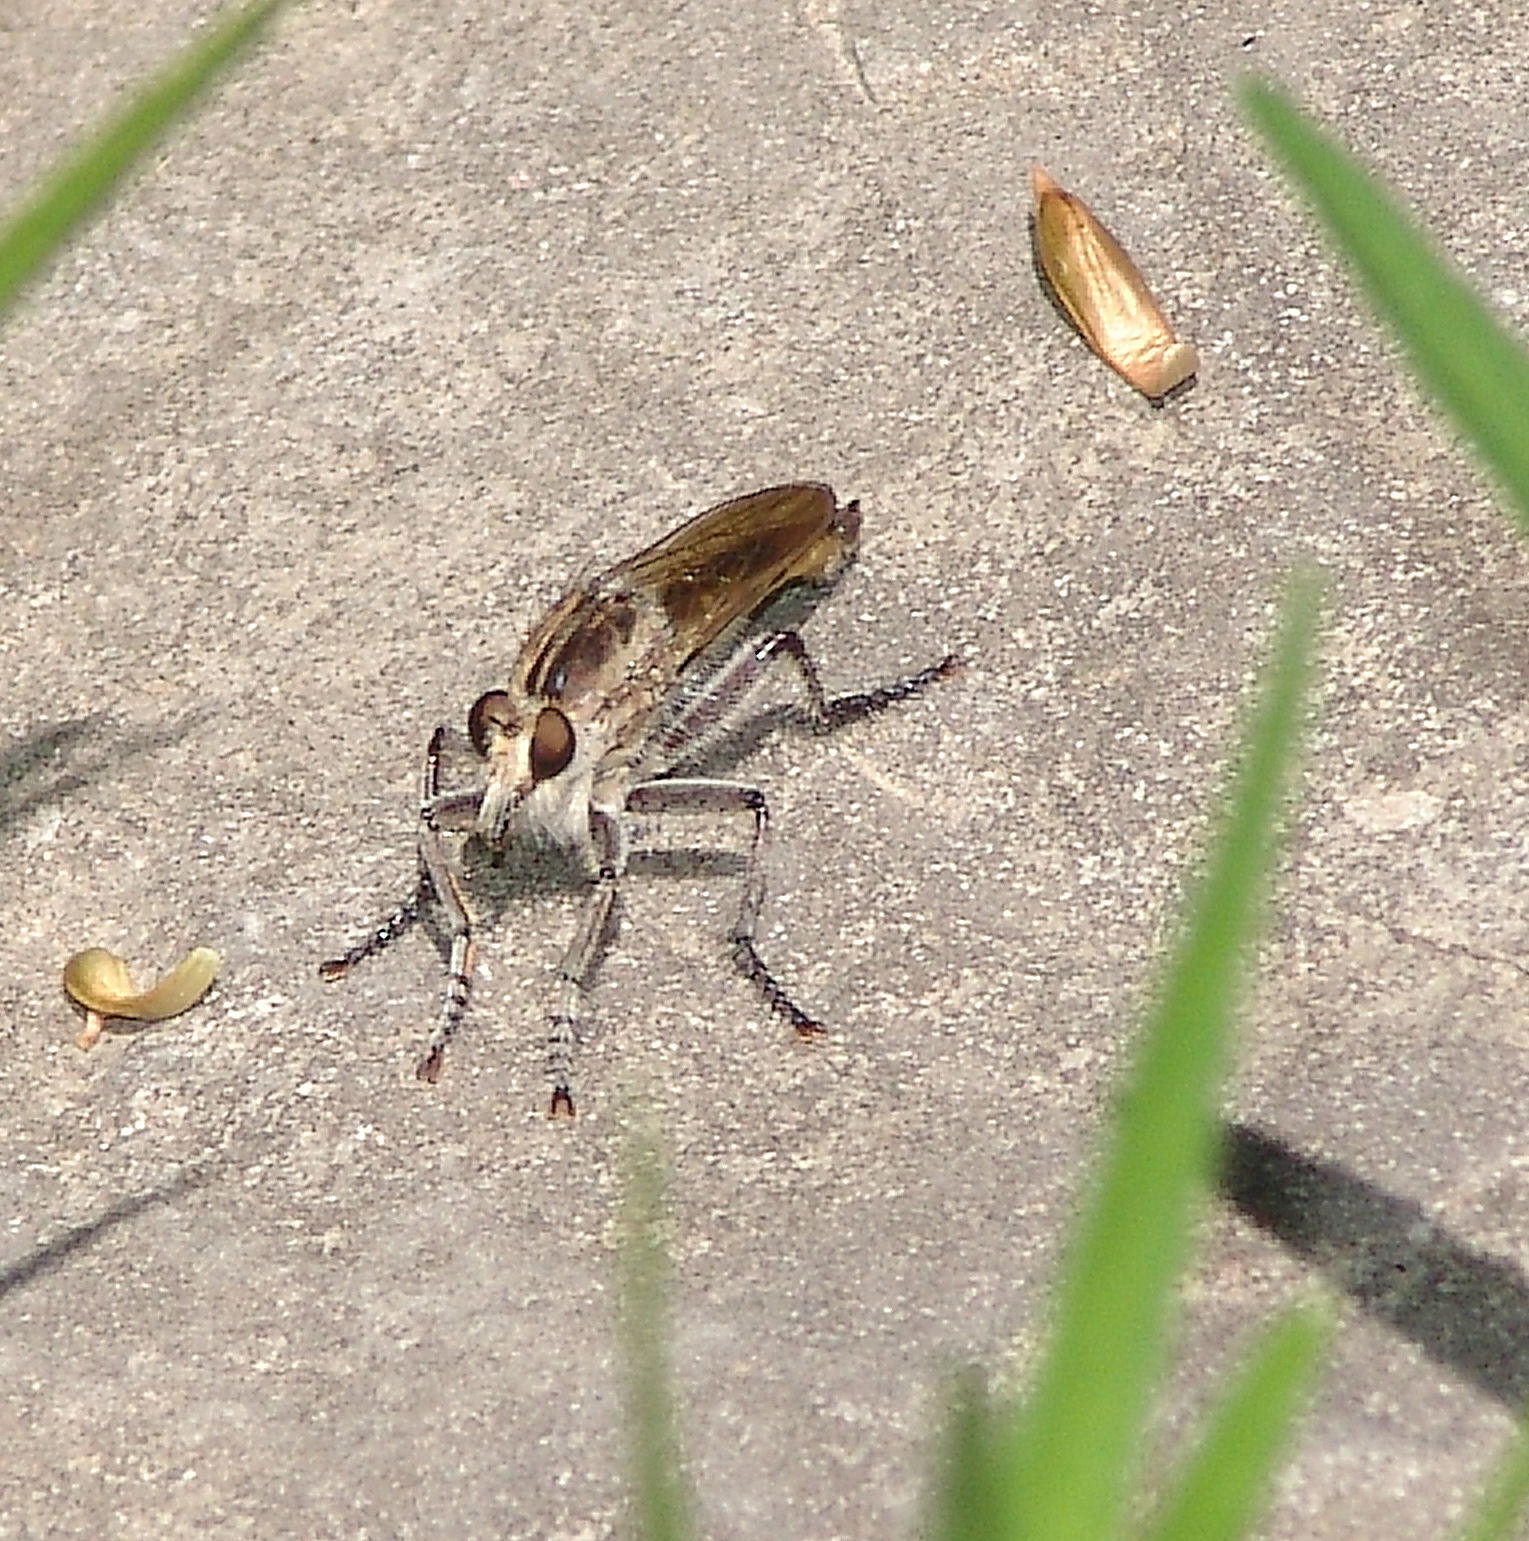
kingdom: Animalia
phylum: Arthropoda
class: Insecta
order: Diptera
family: Asilidae
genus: Triorla
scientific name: Triorla interrupta
